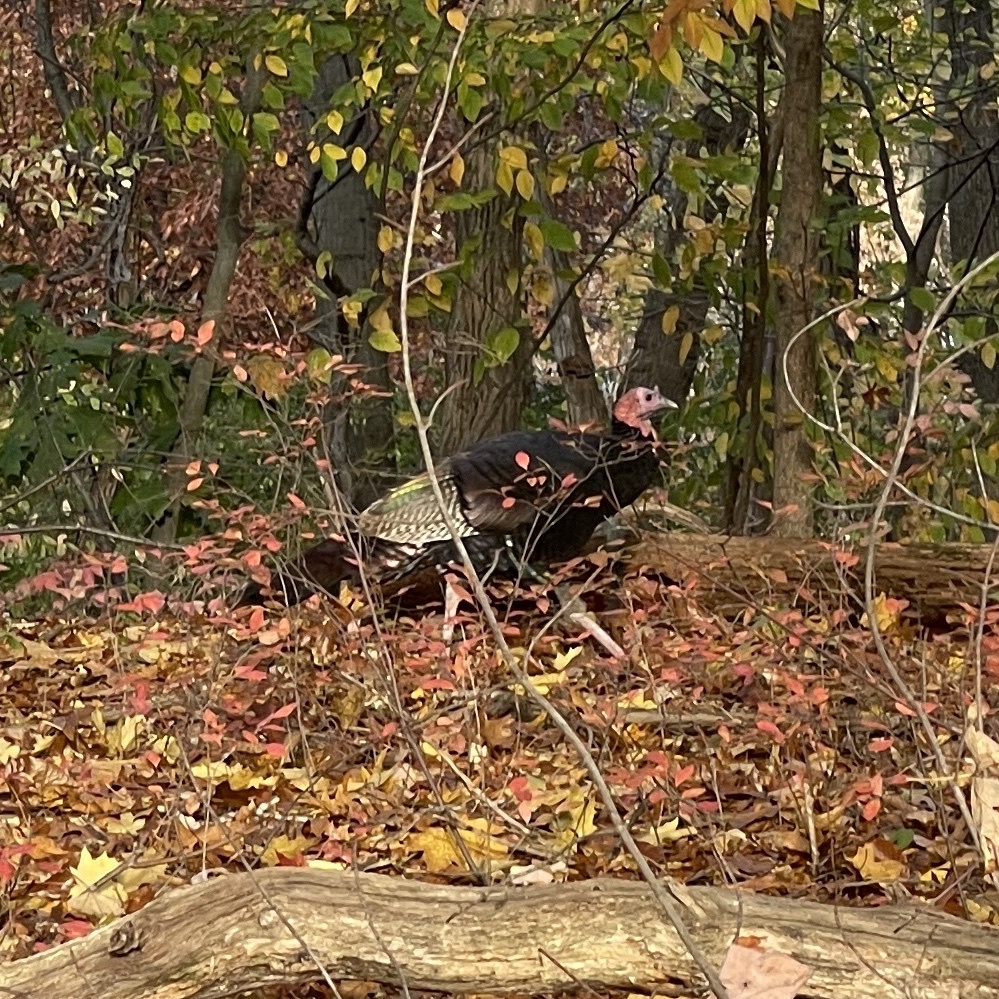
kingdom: Animalia
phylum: Chordata
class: Aves
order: Galliformes
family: Phasianidae
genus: Meleagris
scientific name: Meleagris gallopavo
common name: Wild turkey
